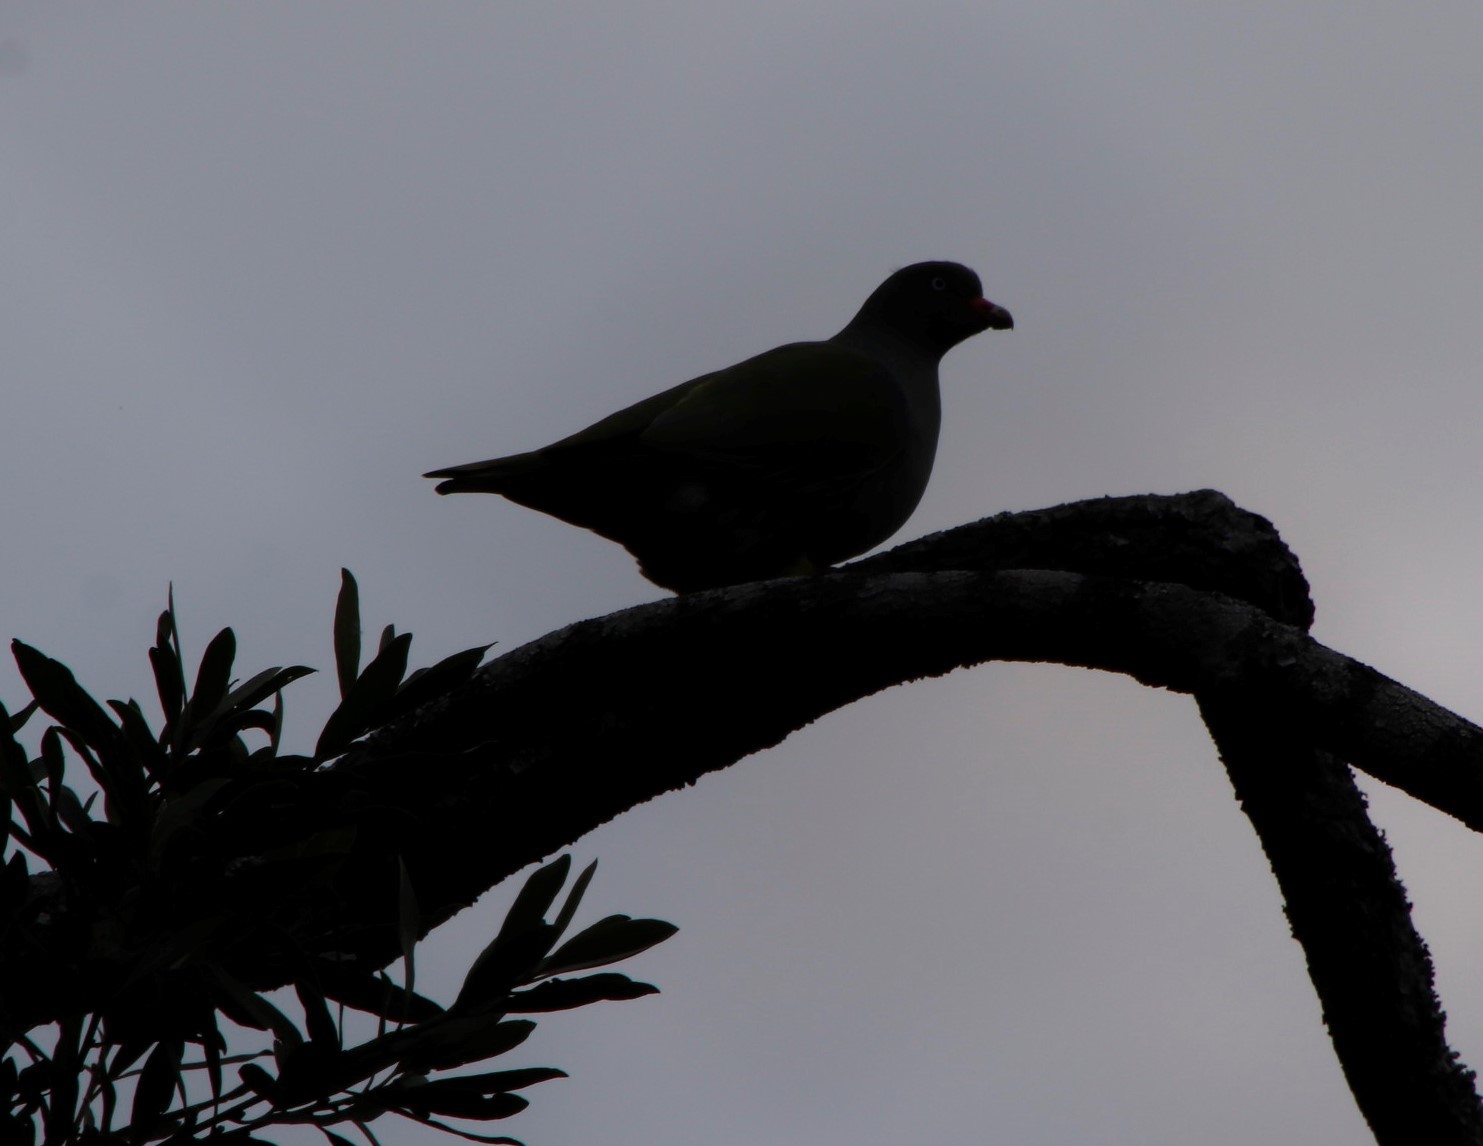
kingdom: Animalia
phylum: Chordata
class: Aves
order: Columbiformes
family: Columbidae
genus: Treron
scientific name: Treron calvus
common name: African green pigeon
